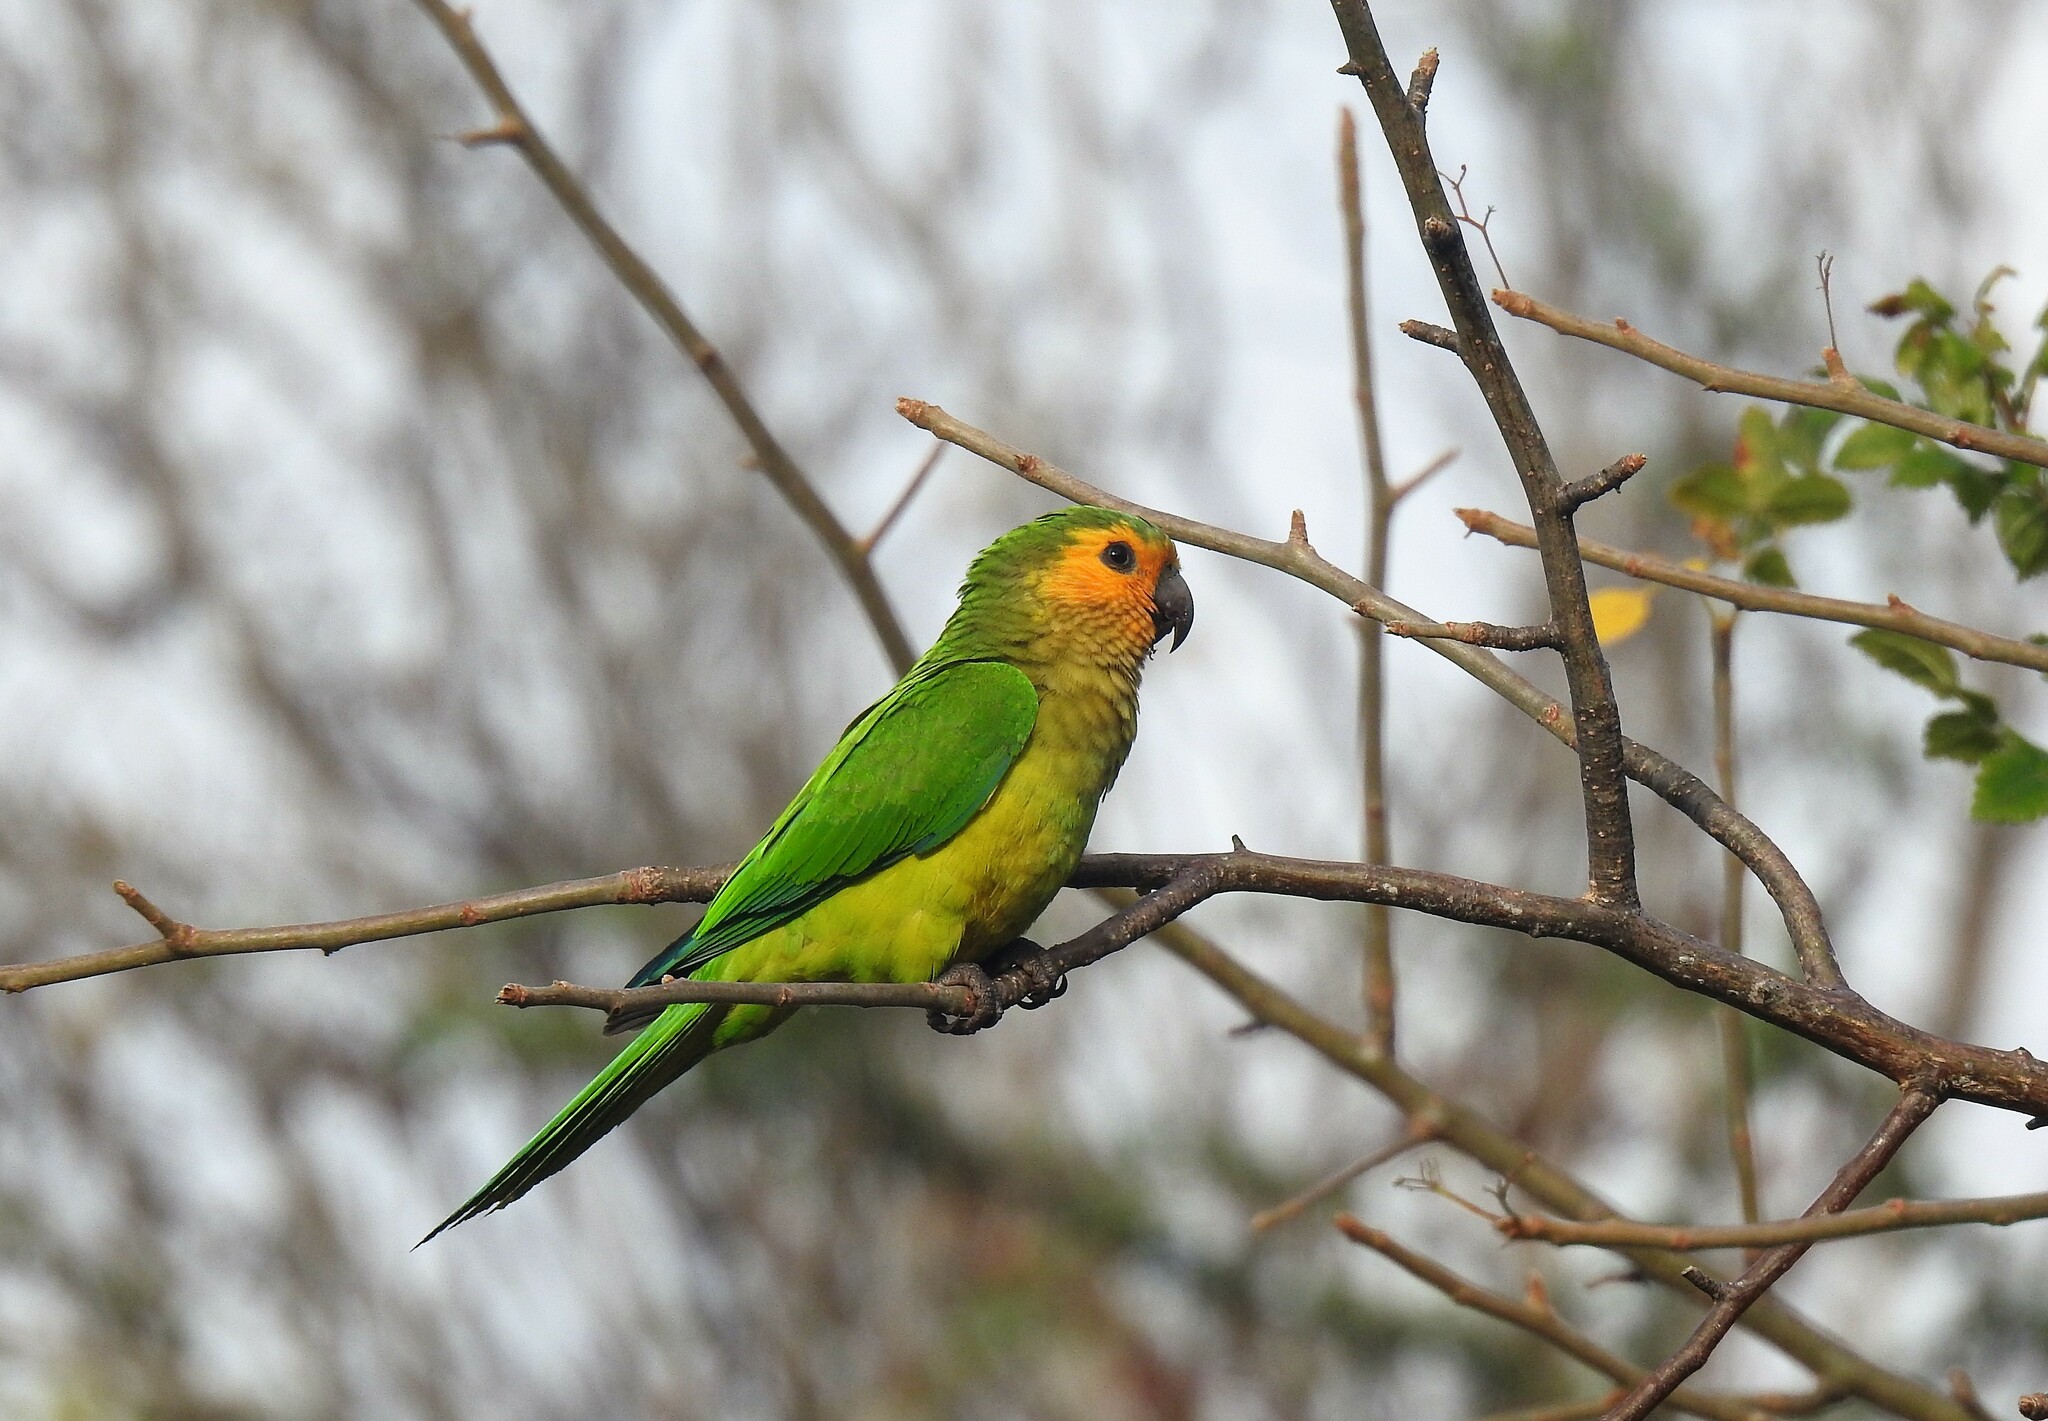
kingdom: Animalia
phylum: Chordata
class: Aves
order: Psittaciformes
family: Psittacidae
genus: Aratinga
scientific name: Aratinga pertinax
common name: Brown-throated parakeet
